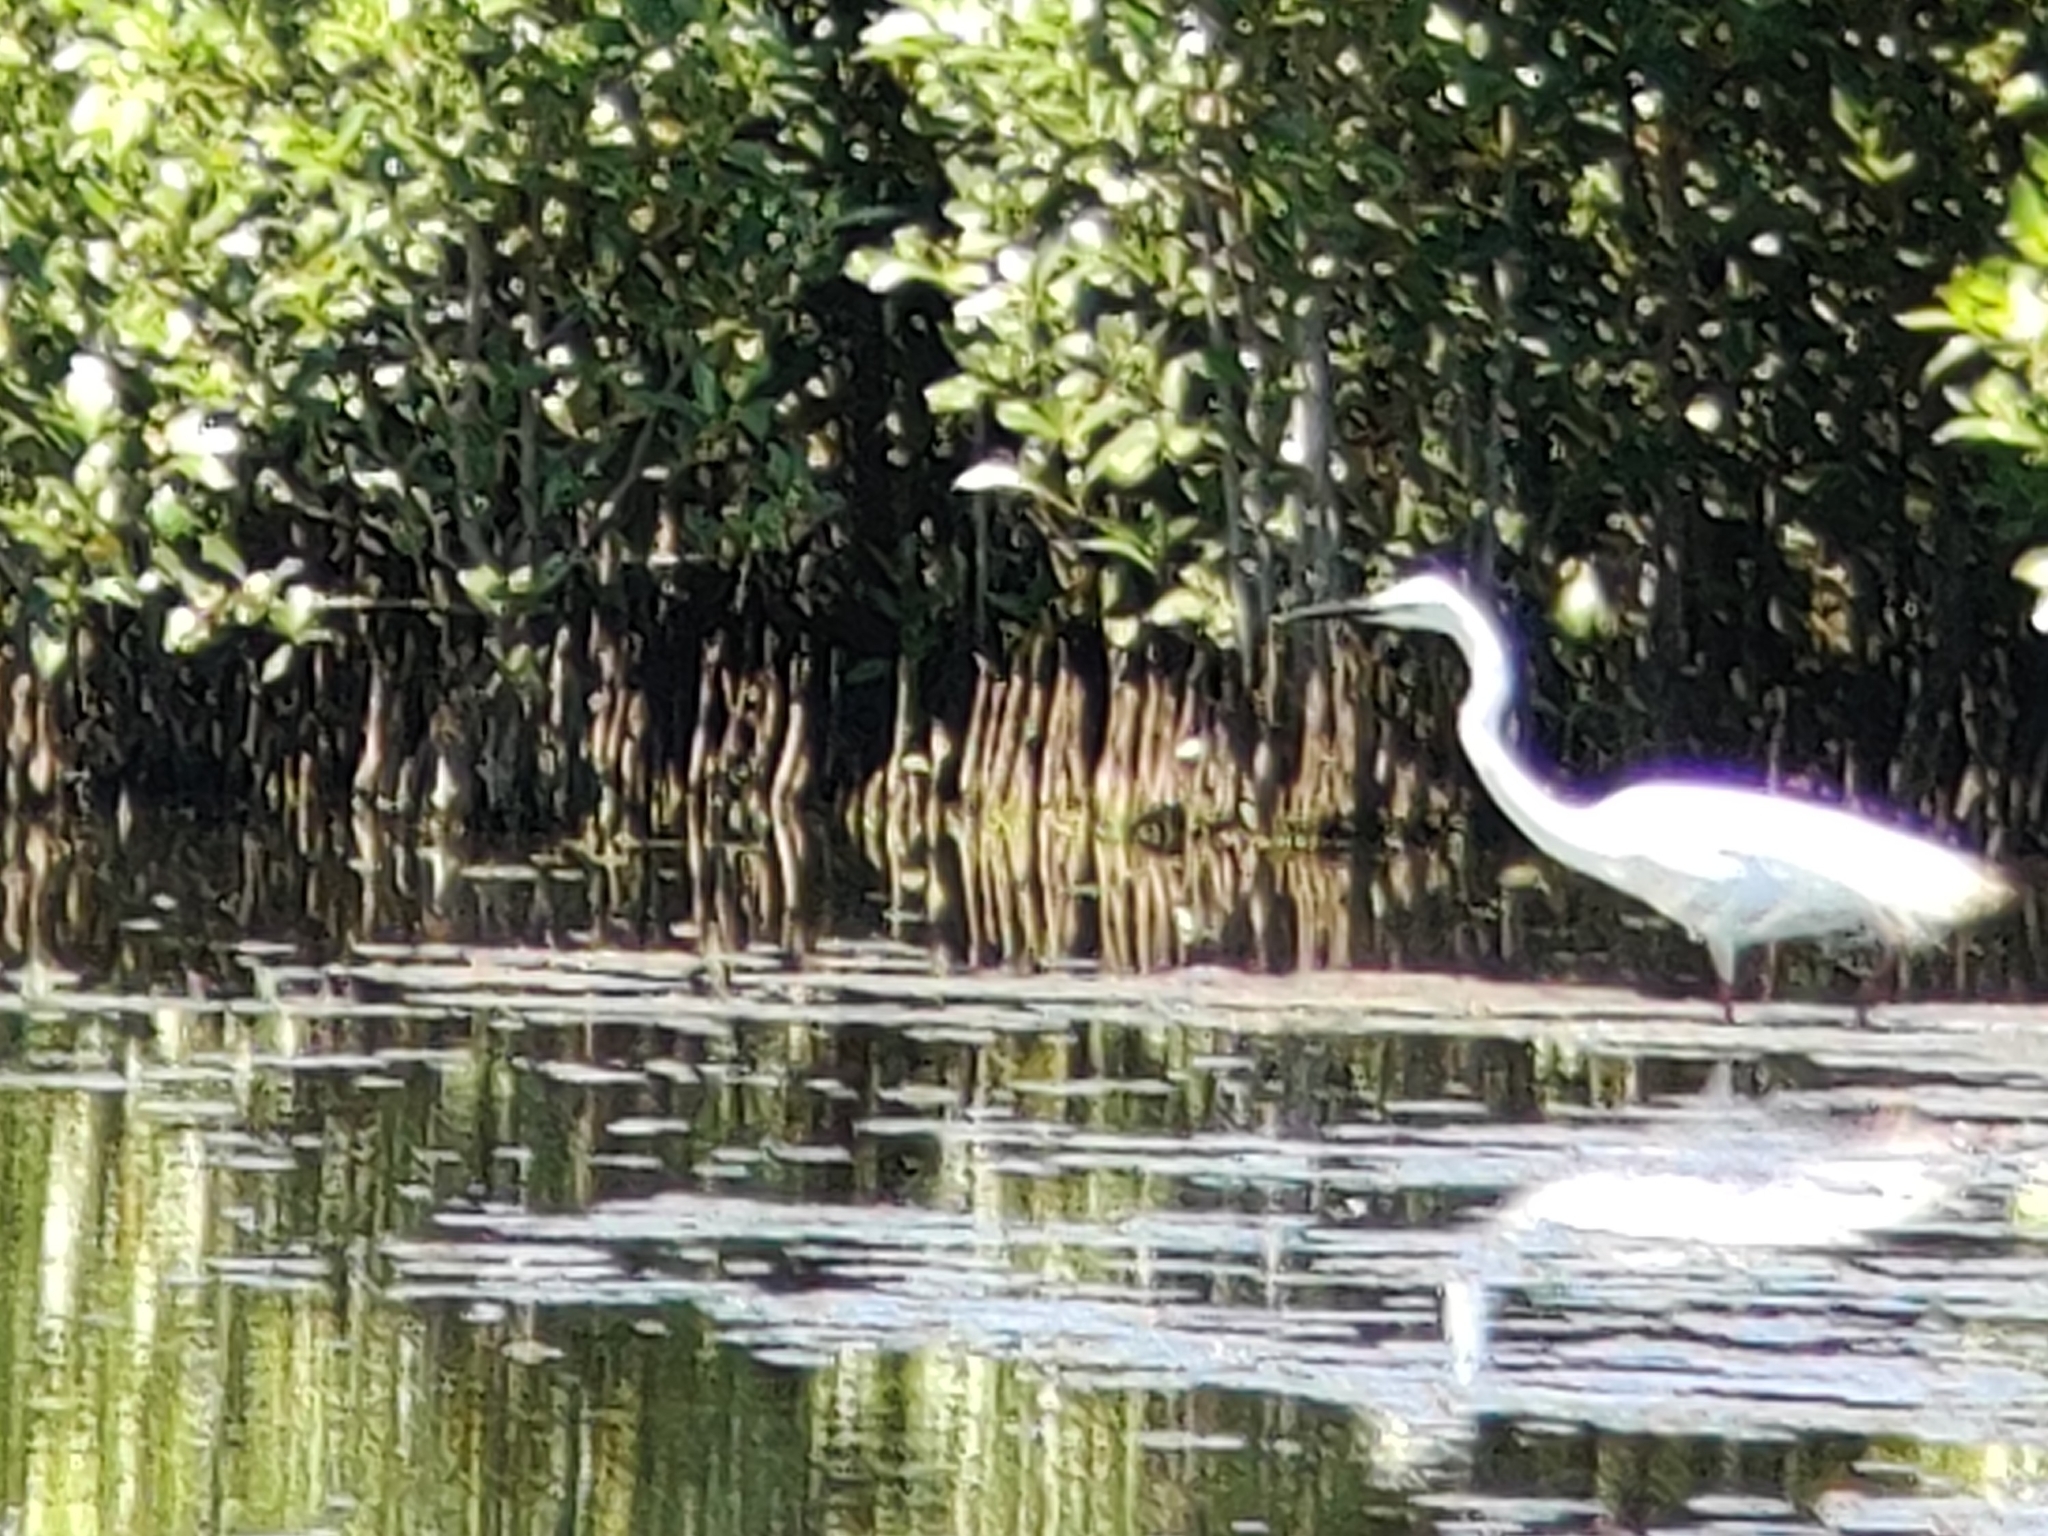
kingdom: Animalia
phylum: Chordata
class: Aves
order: Pelecaniformes
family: Ardeidae
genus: Ardea
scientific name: Ardea alba
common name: Great egret
